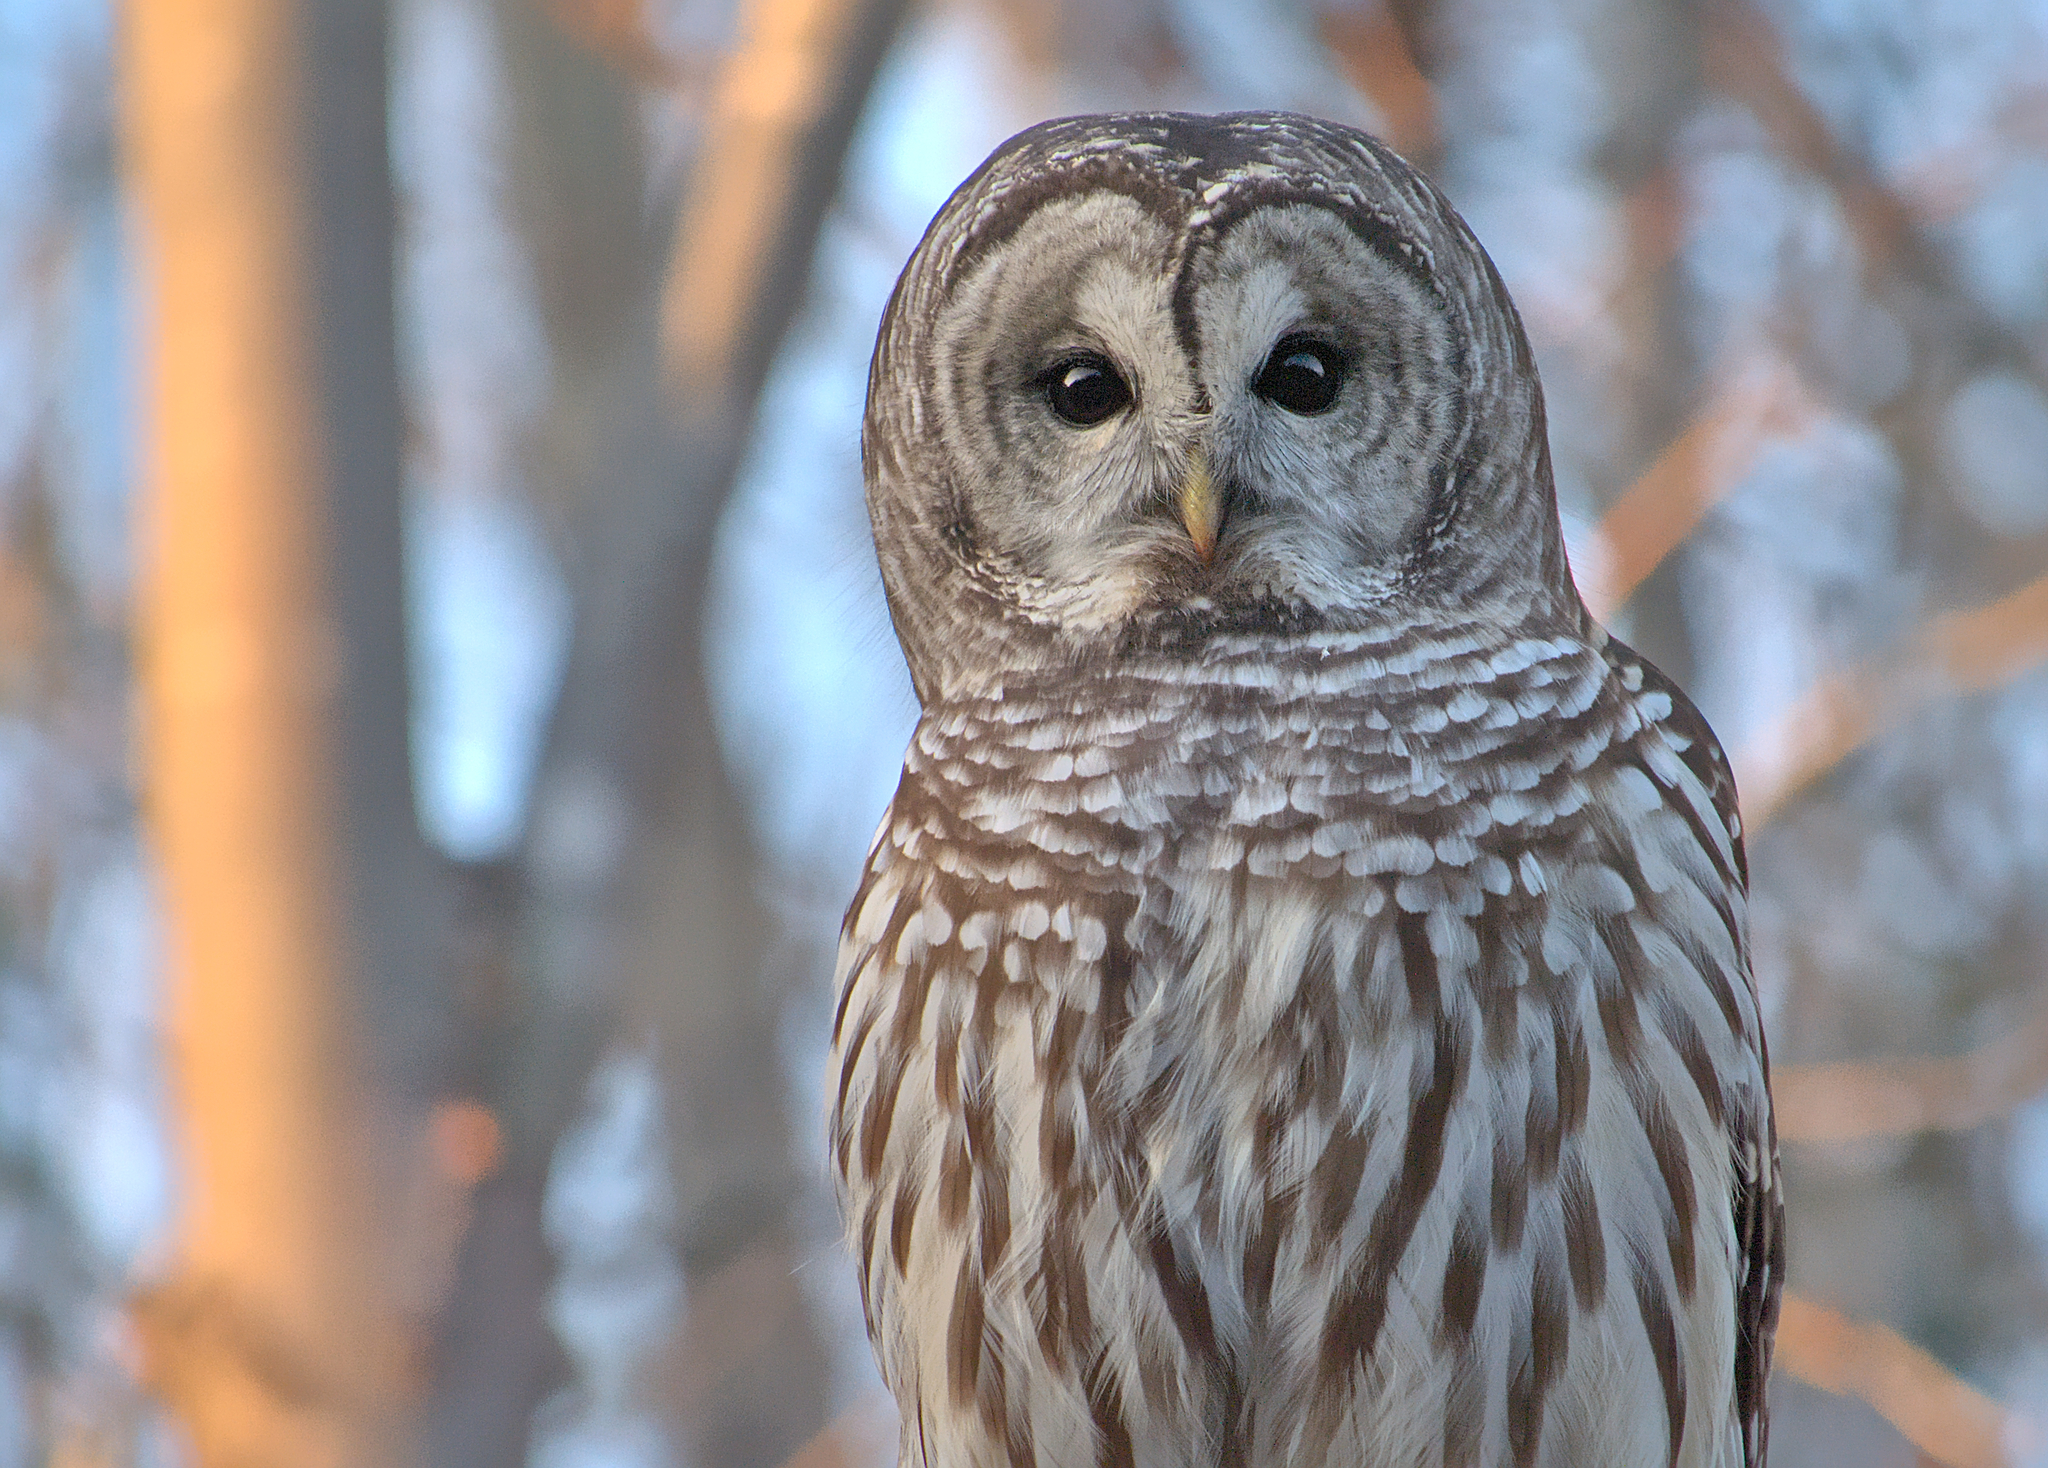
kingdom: Animalia
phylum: Chordata
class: Aves
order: Strigiformes
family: Strigidae
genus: Strix
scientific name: Strix varia
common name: Barred owl
